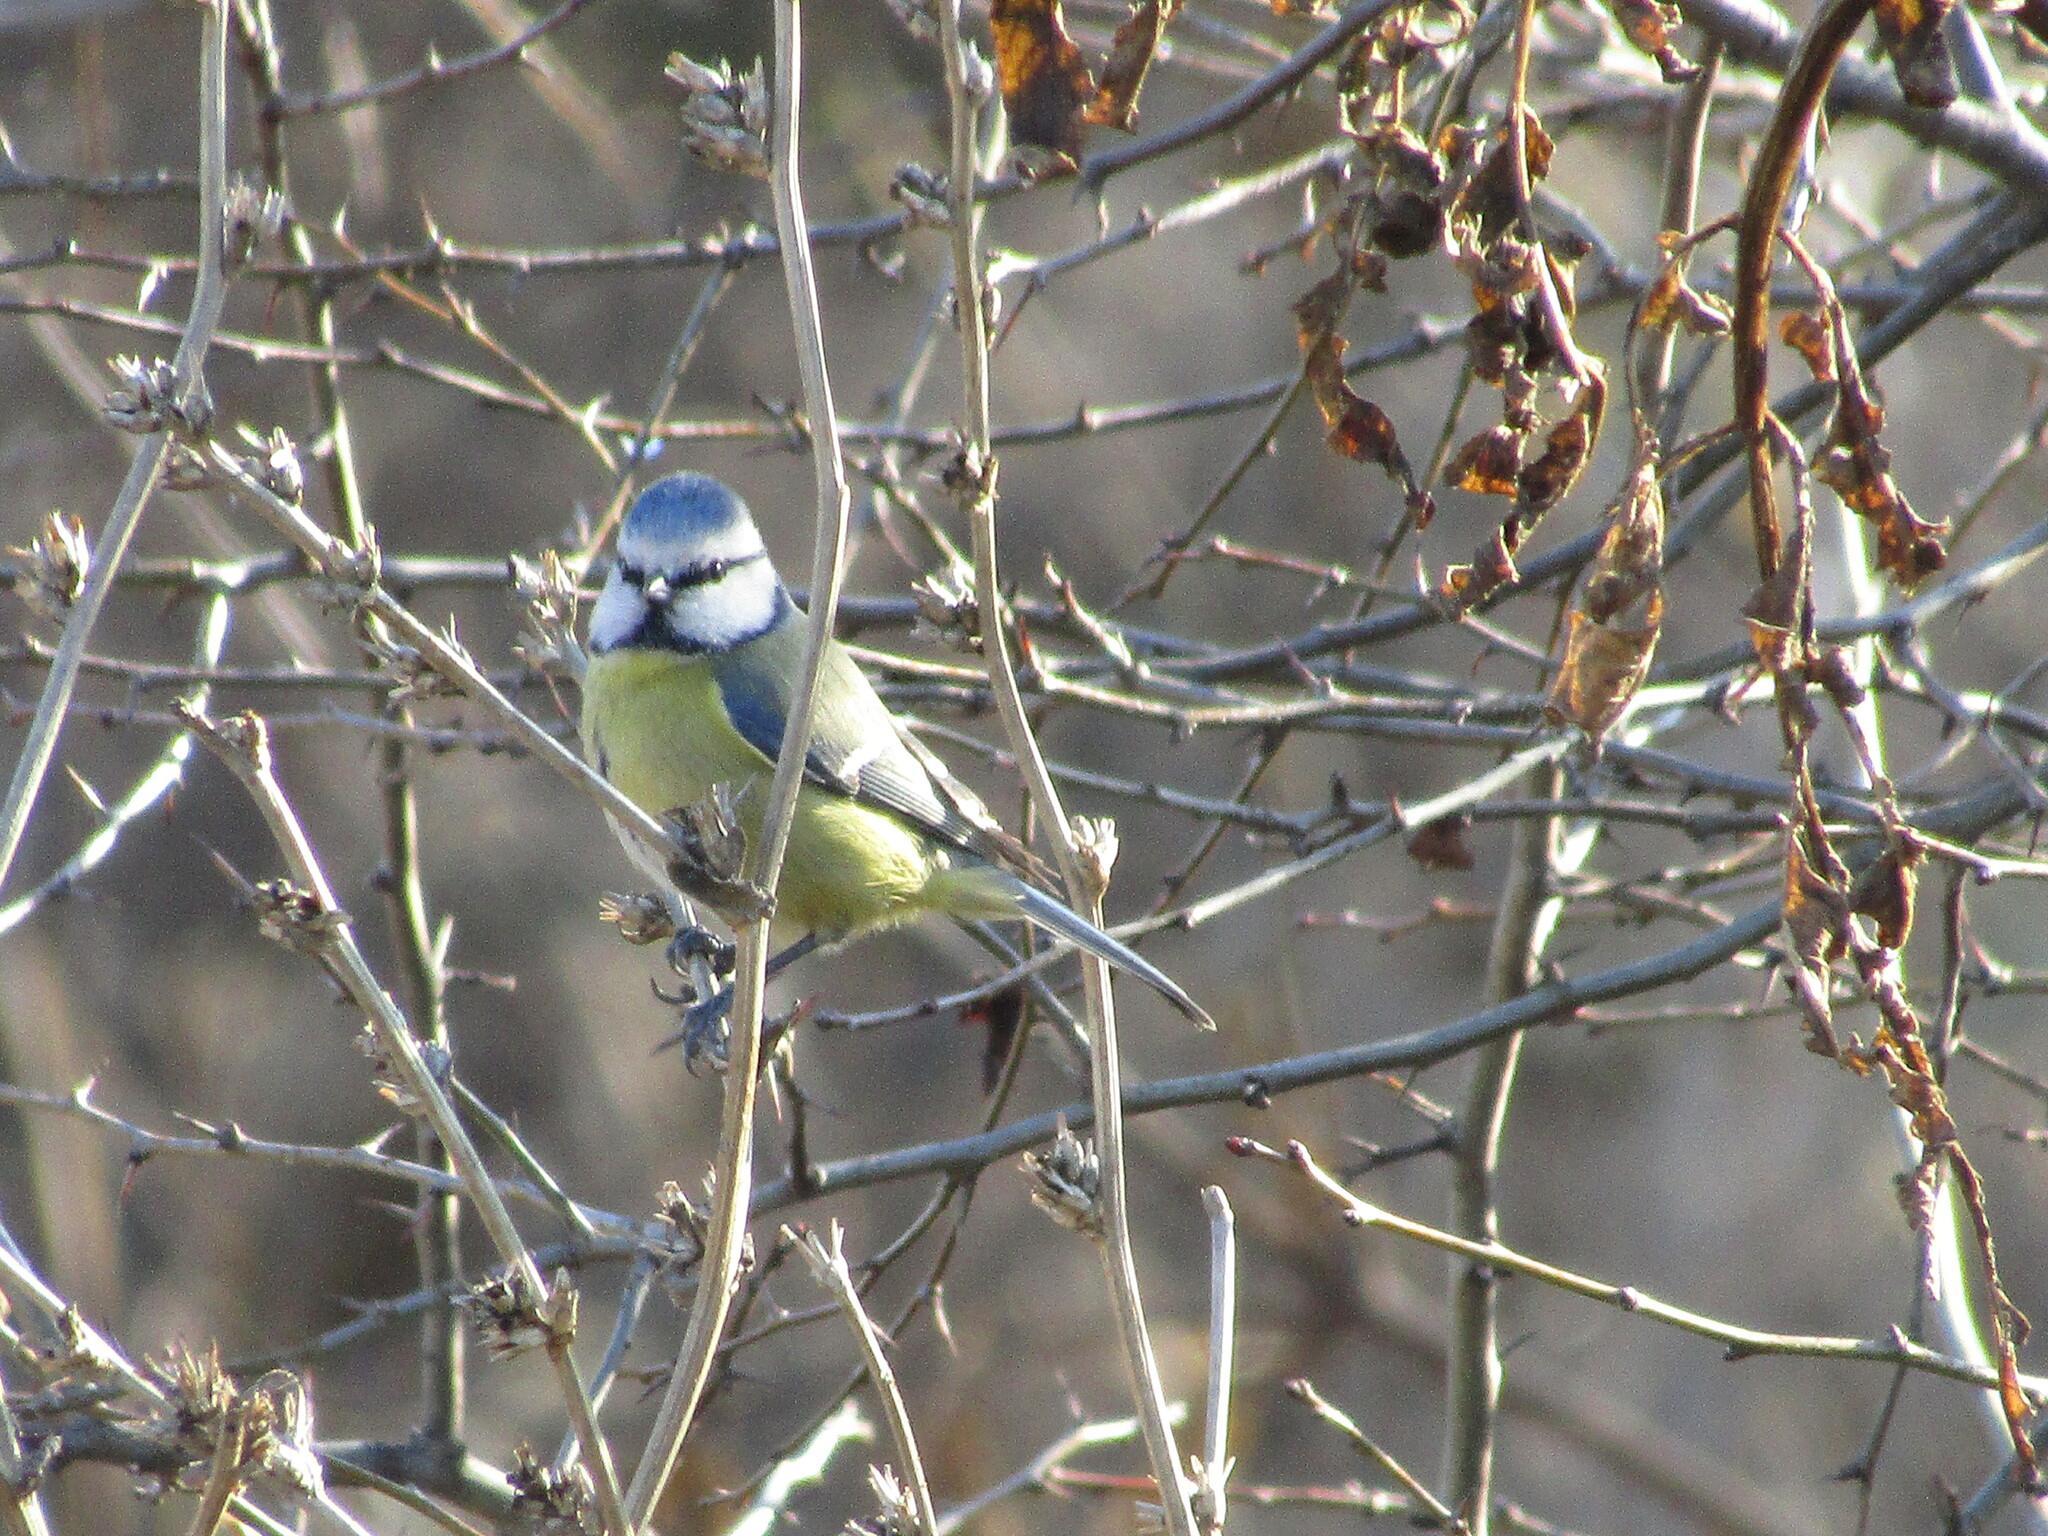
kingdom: Animalia
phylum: Chordata
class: Aves
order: Passeriformes
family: Paridae
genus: Cyanistes
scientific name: Cyanistes caeruleus
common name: Eurasian blue tit
